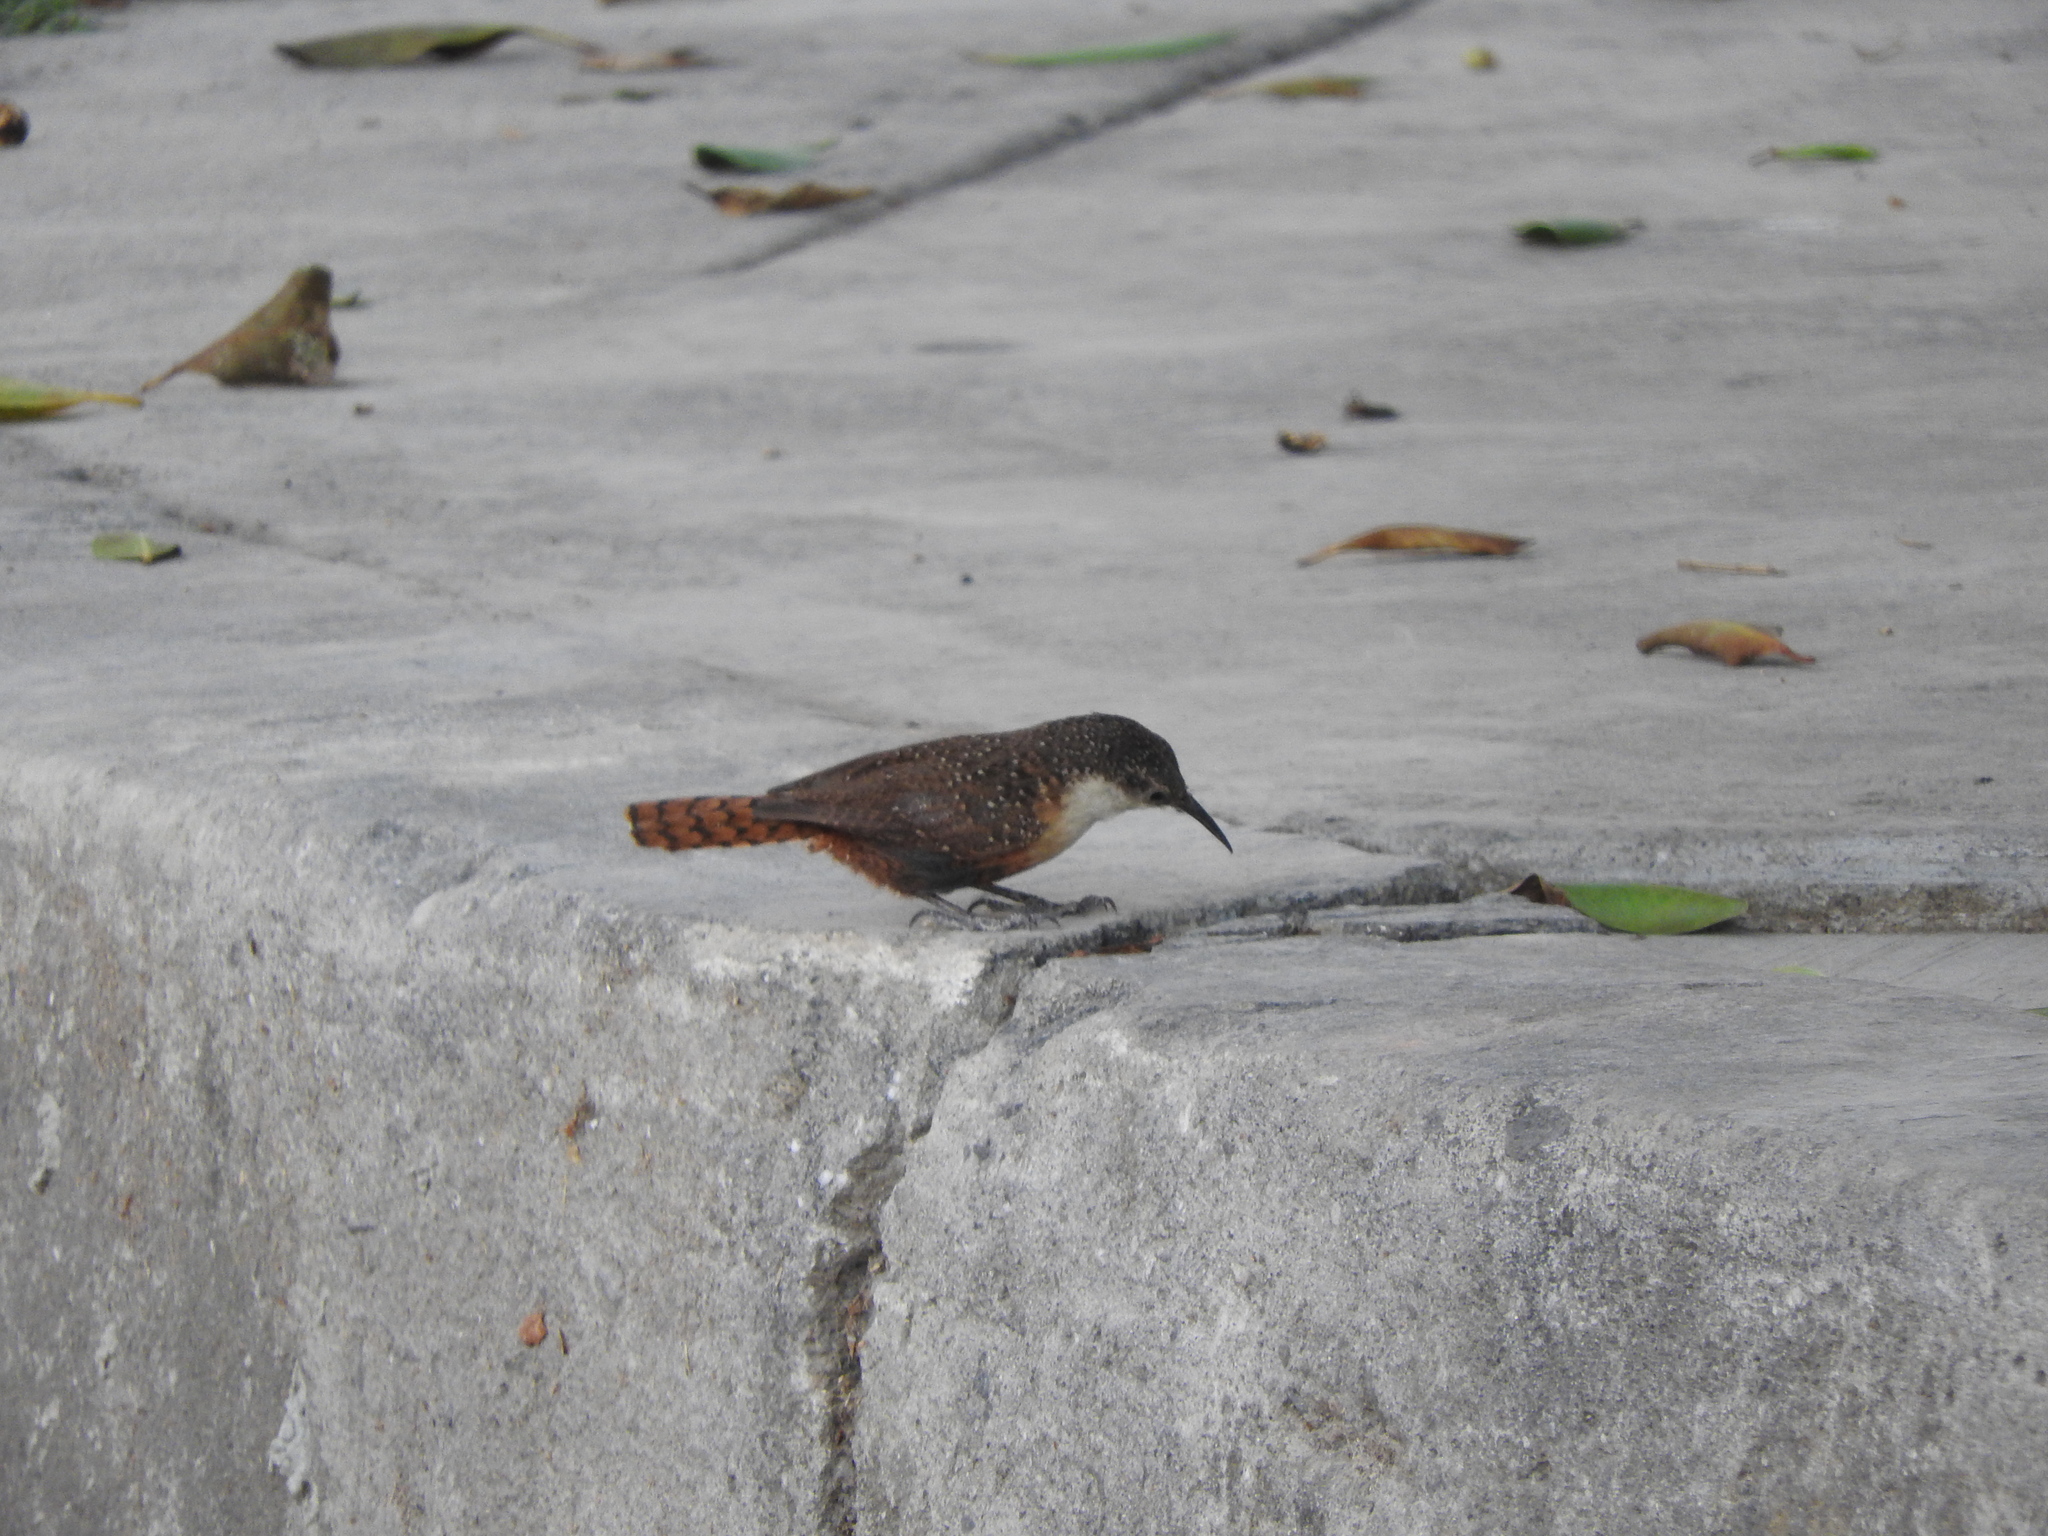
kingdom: Animalia
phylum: Chordata
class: Aves
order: Passeriformes
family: Troglodytidae
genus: Catherpes
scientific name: Catherpes mexicanus
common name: Canyon wren
